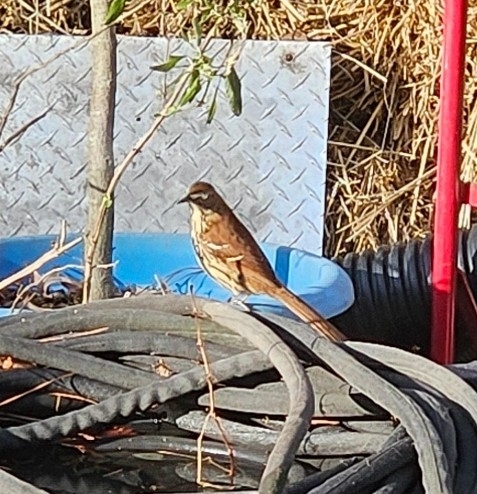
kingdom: Animalia
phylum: Chordata
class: Aves
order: Passeriformes
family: Mimidae
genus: Toxostoma
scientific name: Toxostoma rufum
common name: Brown thrasher
